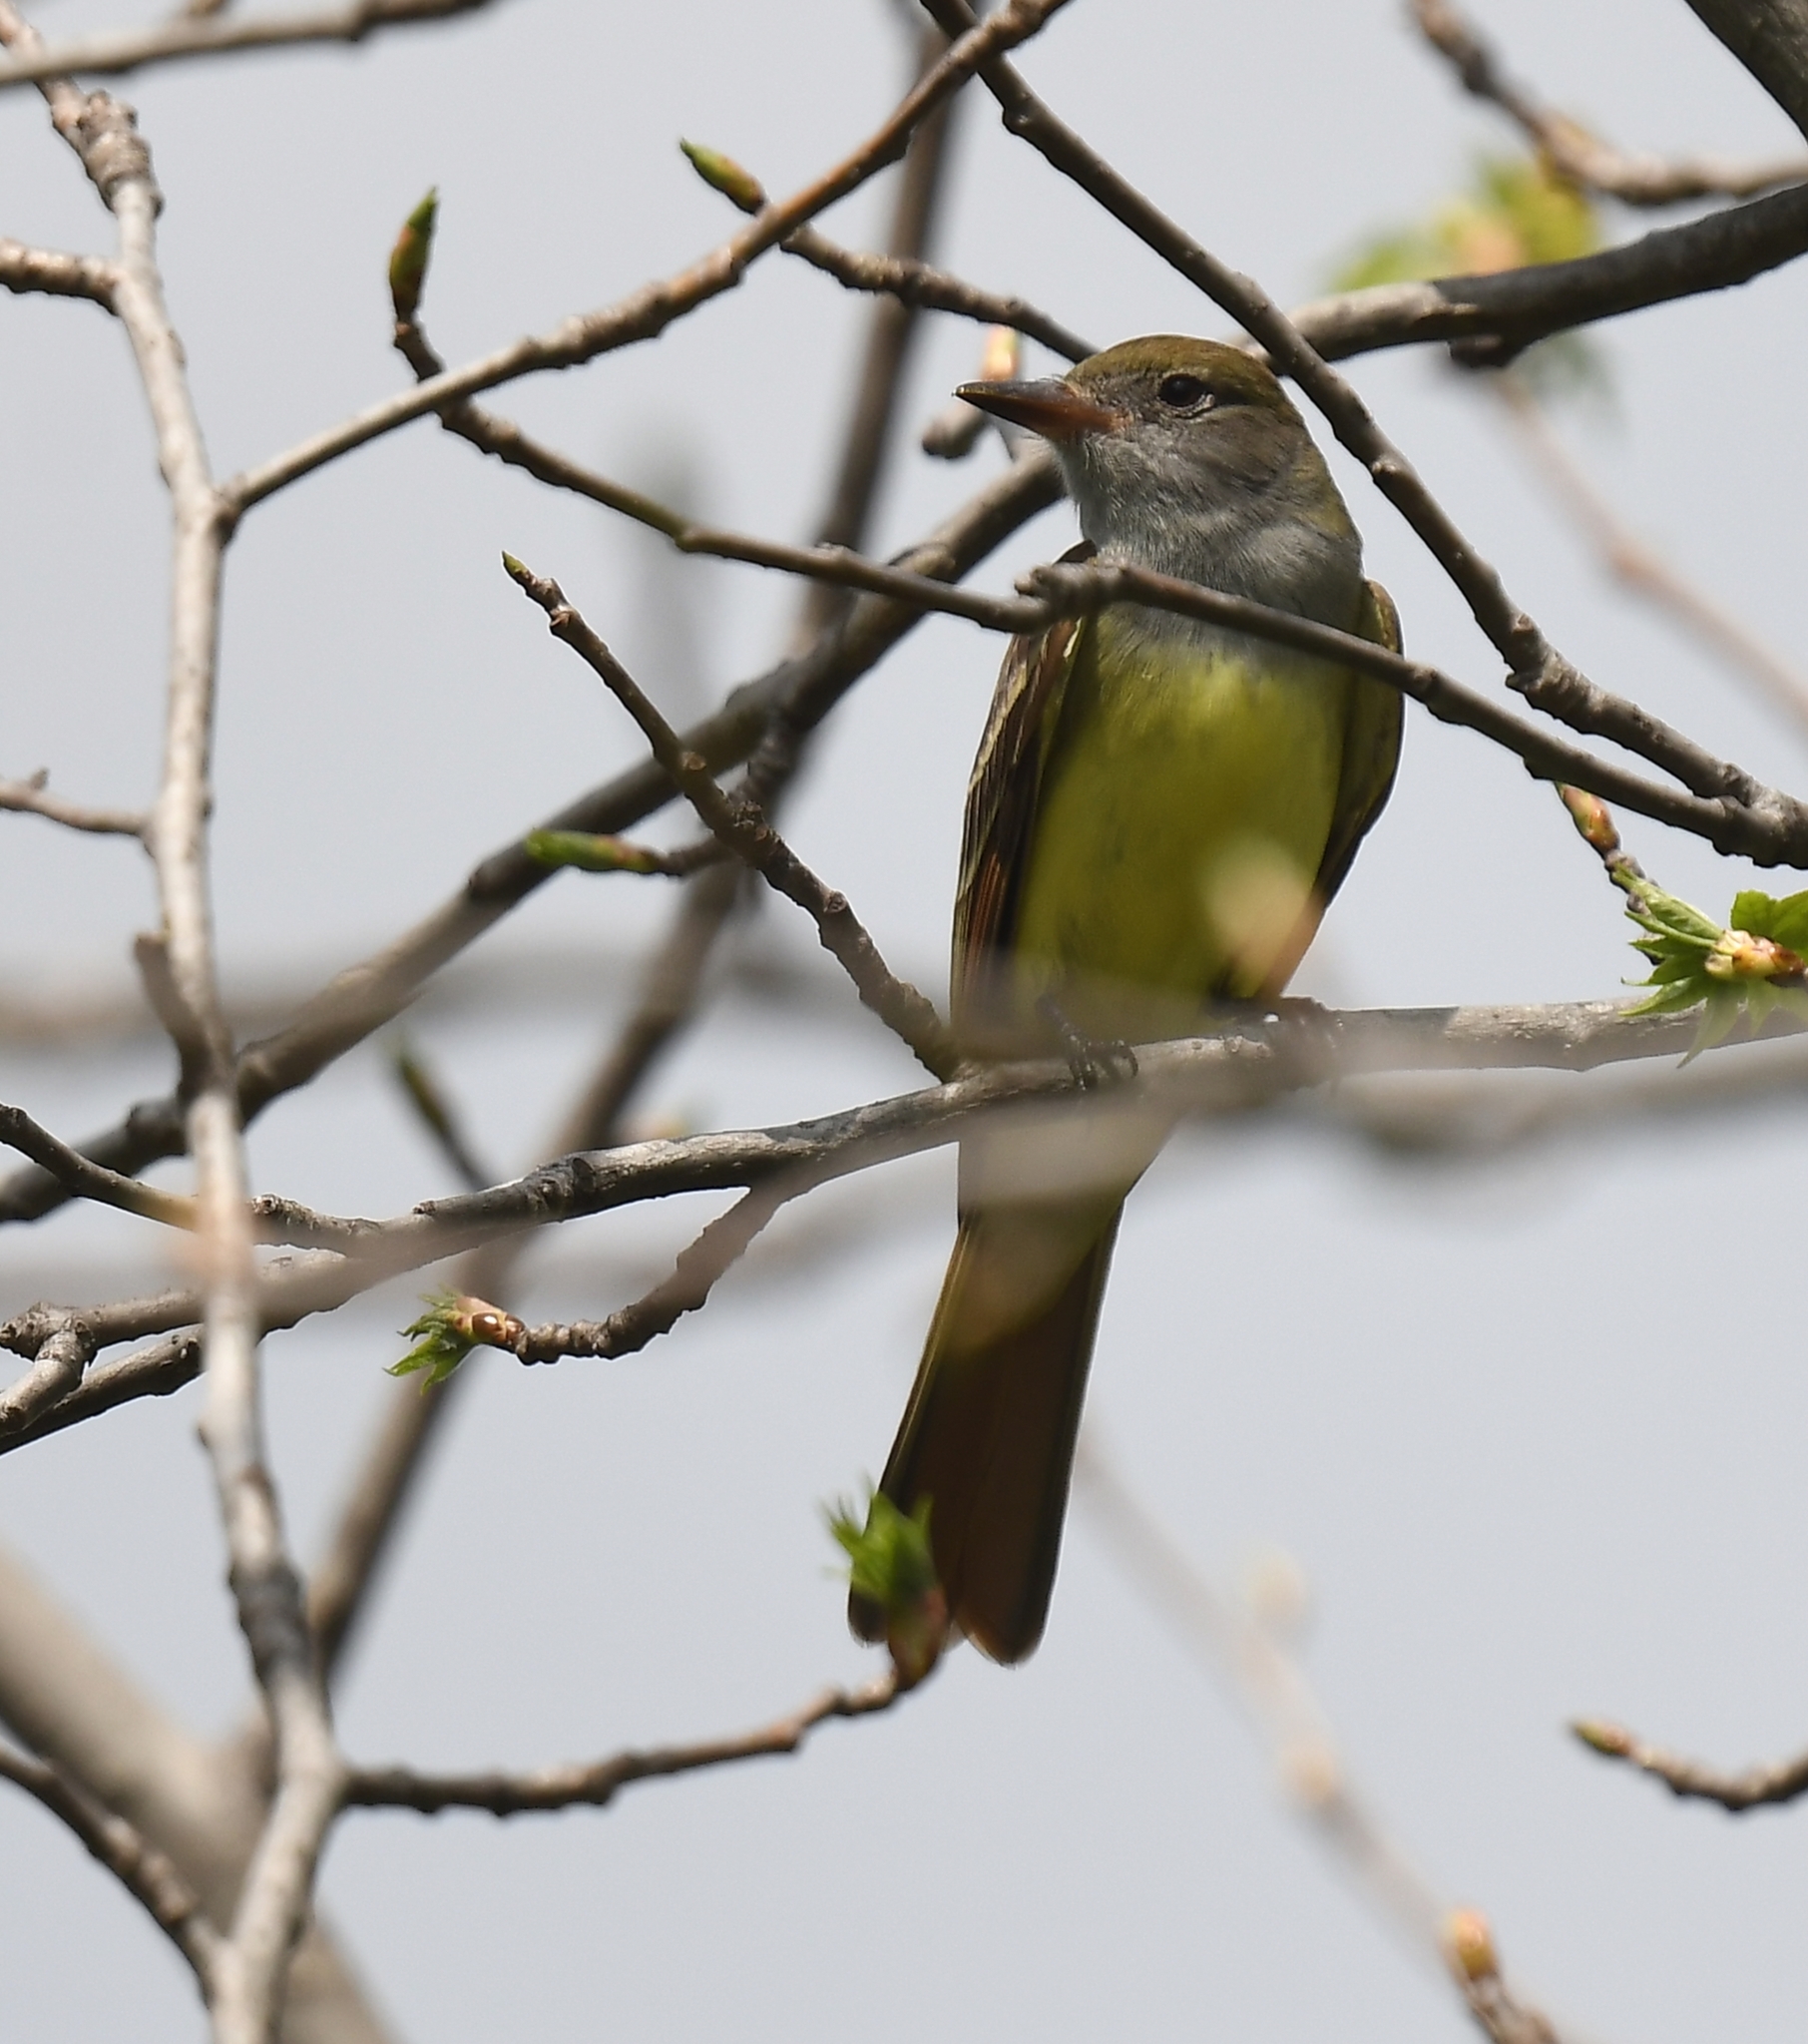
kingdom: Animalia
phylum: Chordata
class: Aves
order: Passeriformes
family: Tyrannidae
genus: Myiarchus
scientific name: Myiarchus crinitus
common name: Great crested flycatcher
